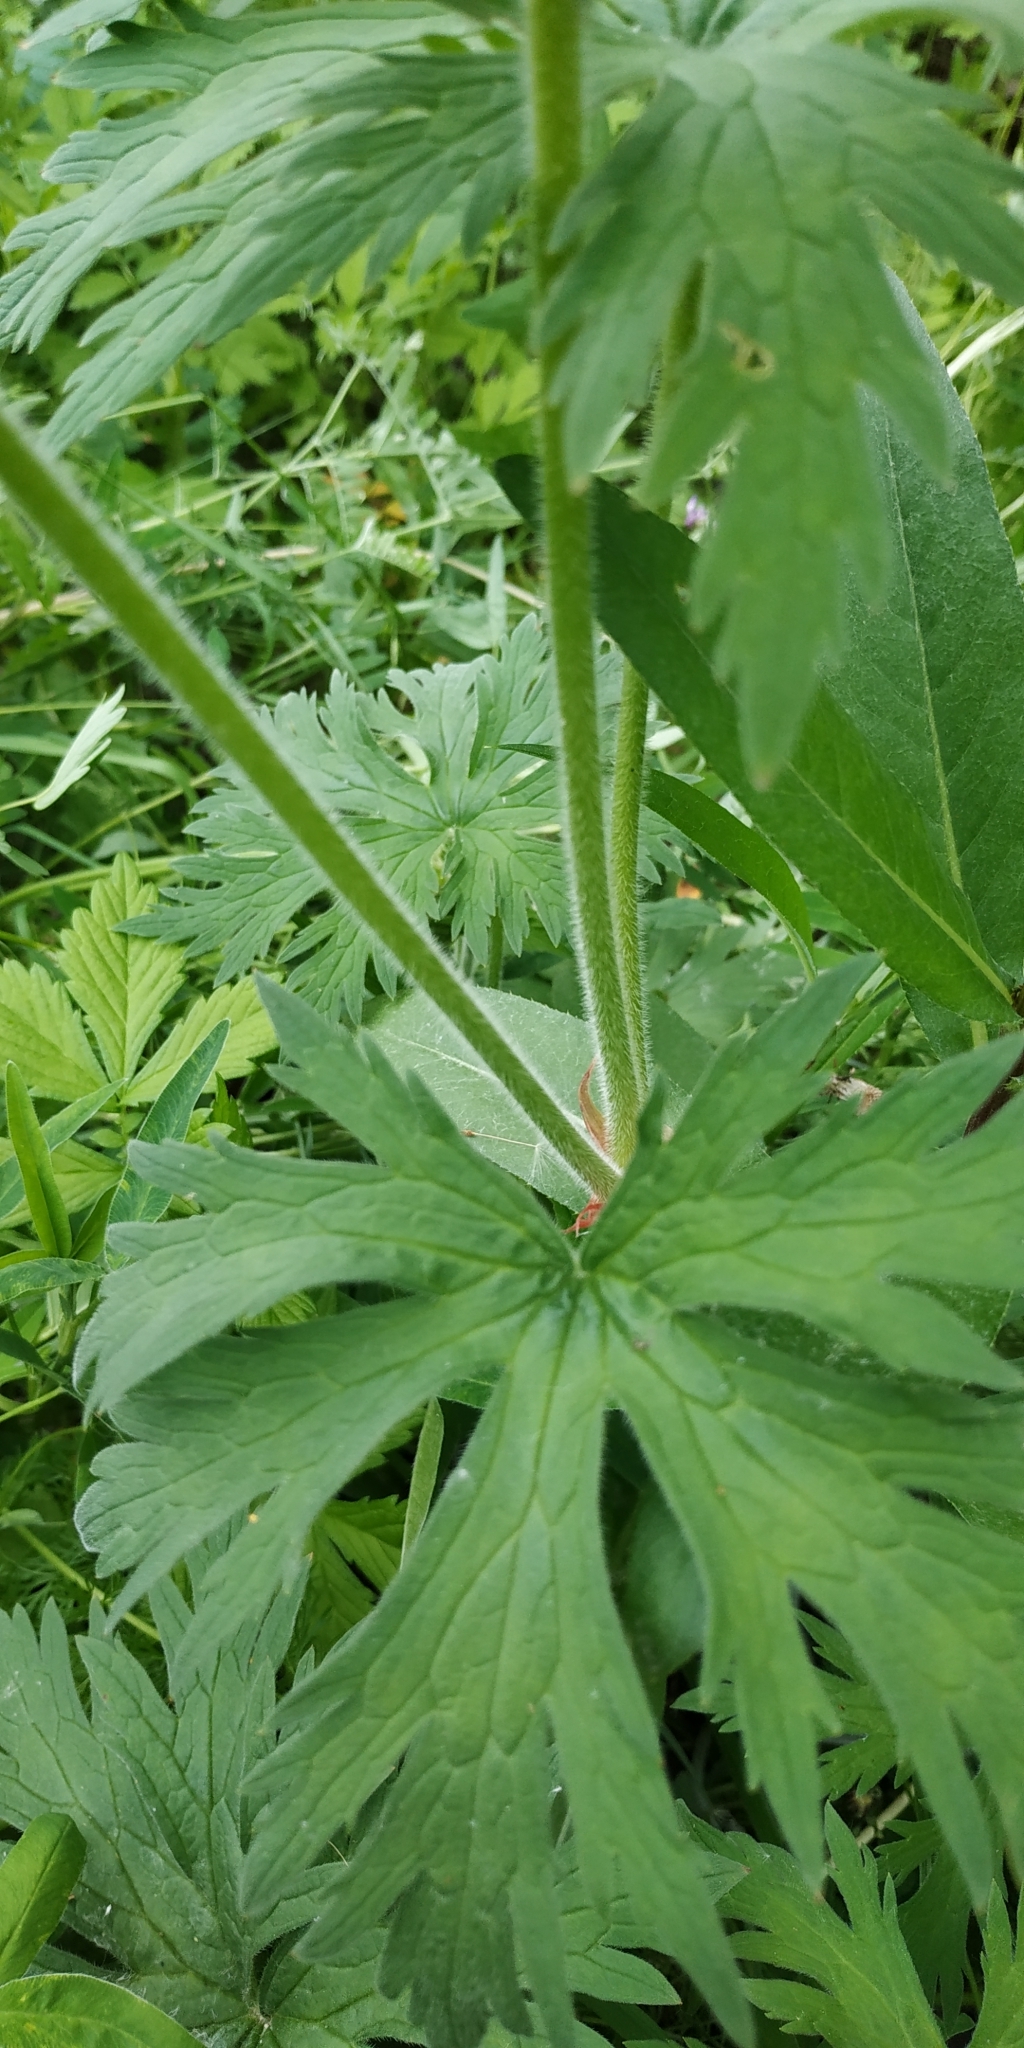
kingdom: Plantae
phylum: Tracheophyta
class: Magnoliopsida
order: Geraniales
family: Geraniaceae
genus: Geranium
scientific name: Geranium pratense
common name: Meadow crane's-bill
